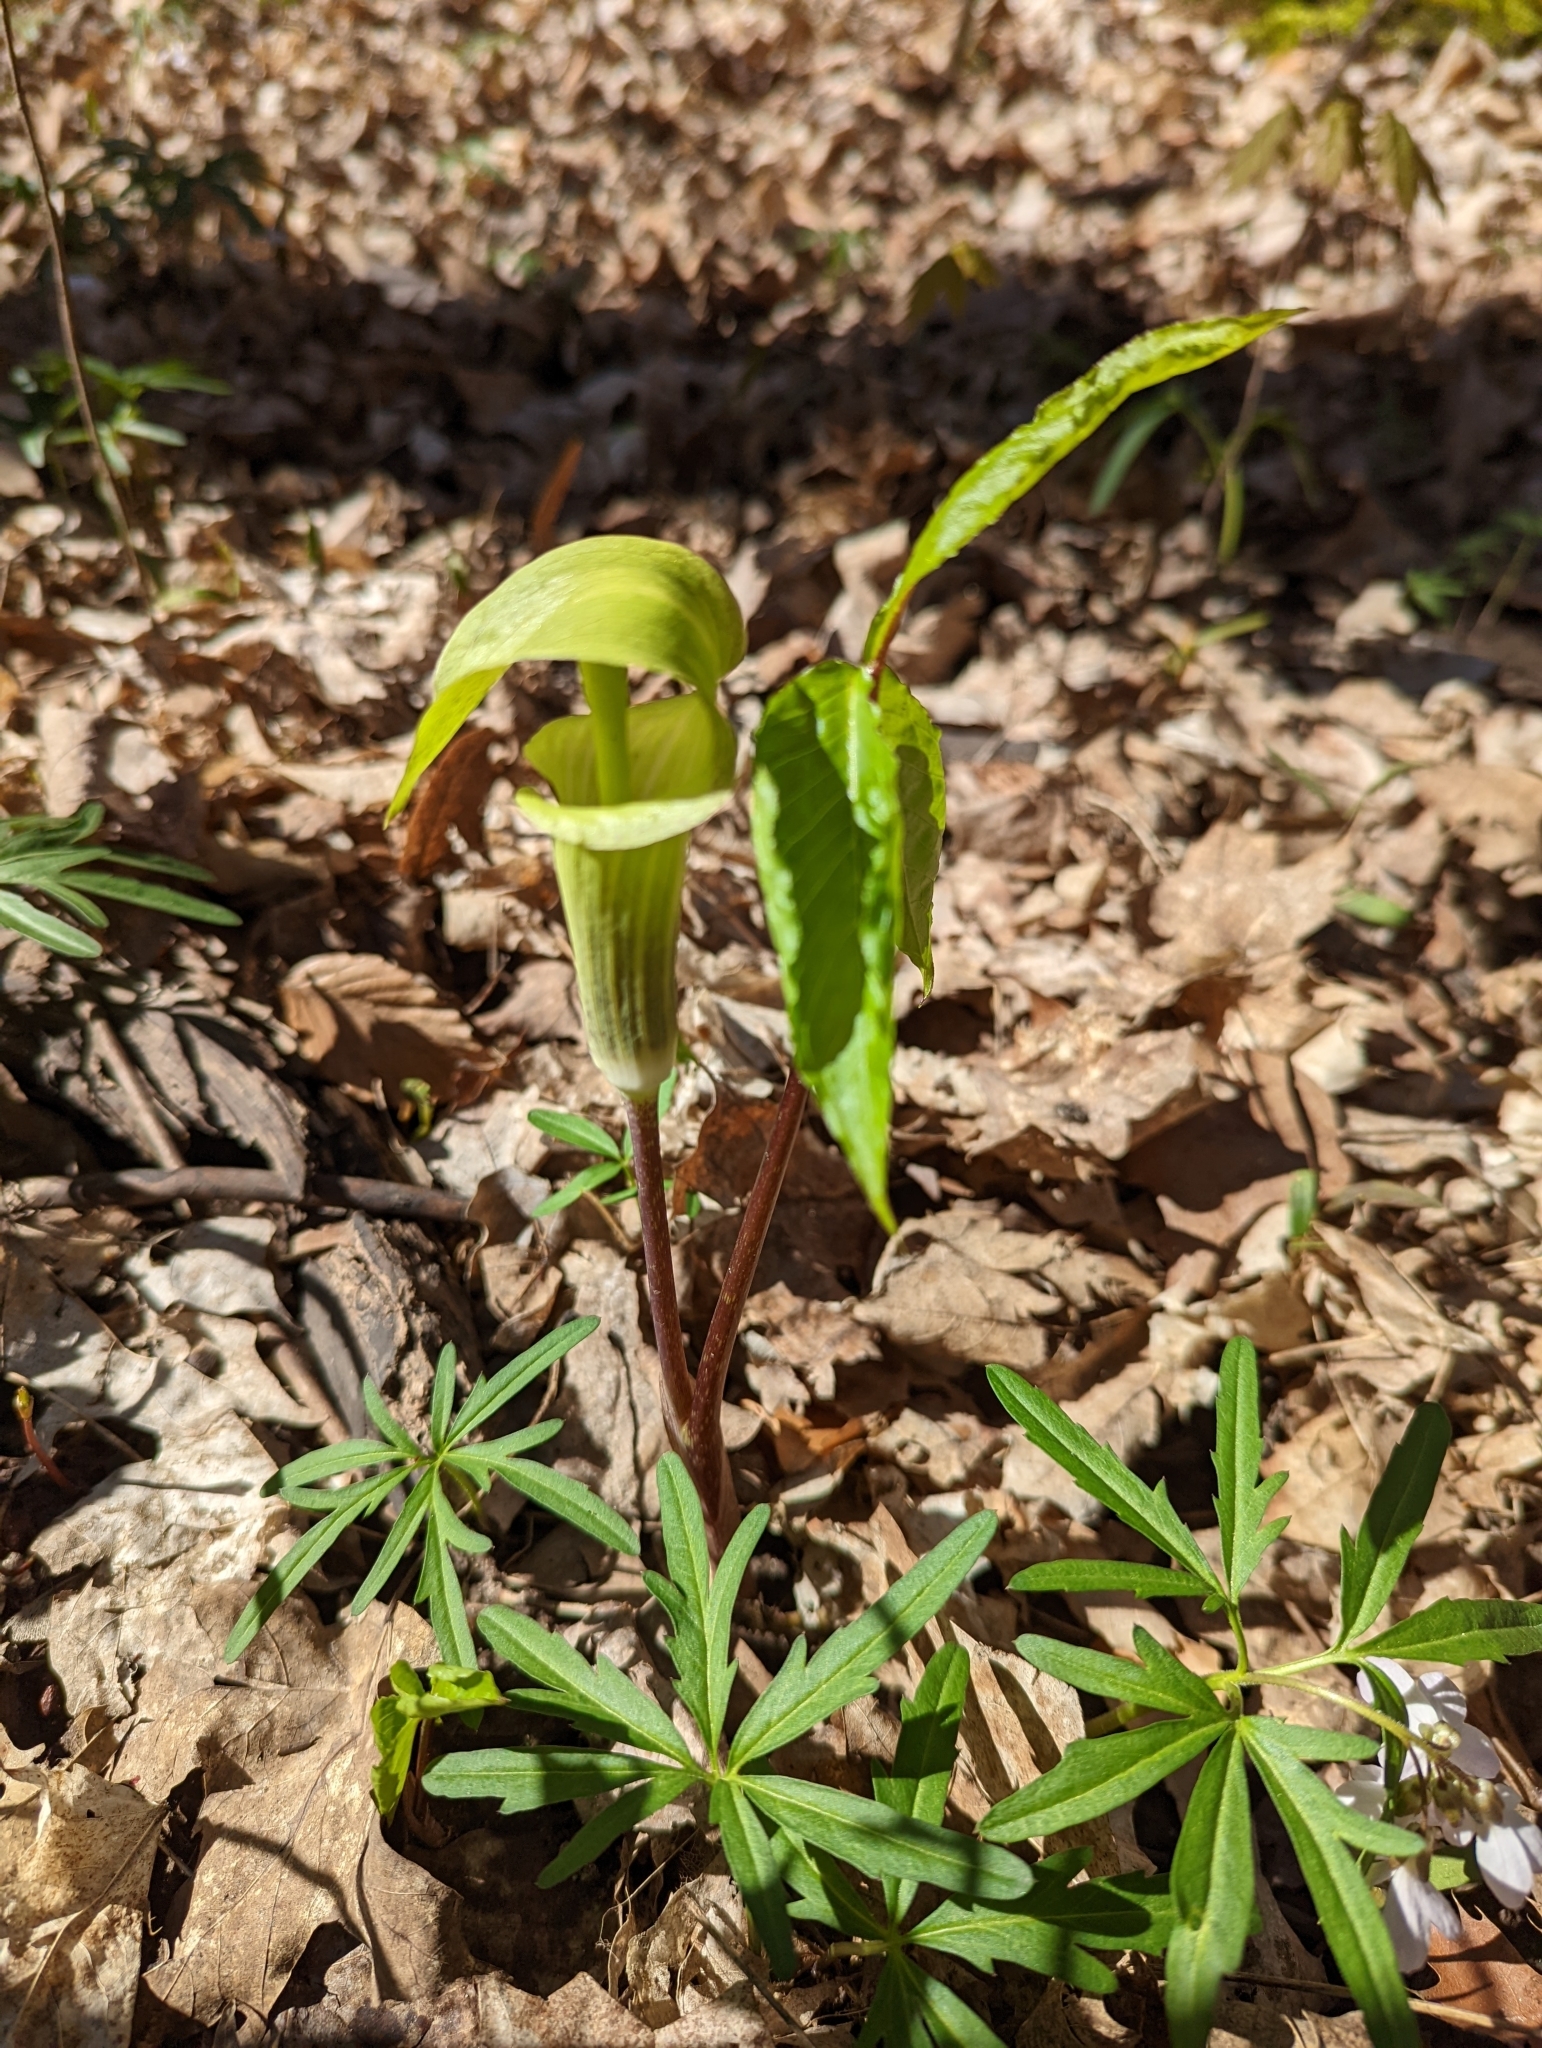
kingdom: Plantae
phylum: Tracheophyta
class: Liliopsida
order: Alismatales
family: Araceae
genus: Arisaema
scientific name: Arisaema triphyllum
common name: Jack-in-the-pulpit
